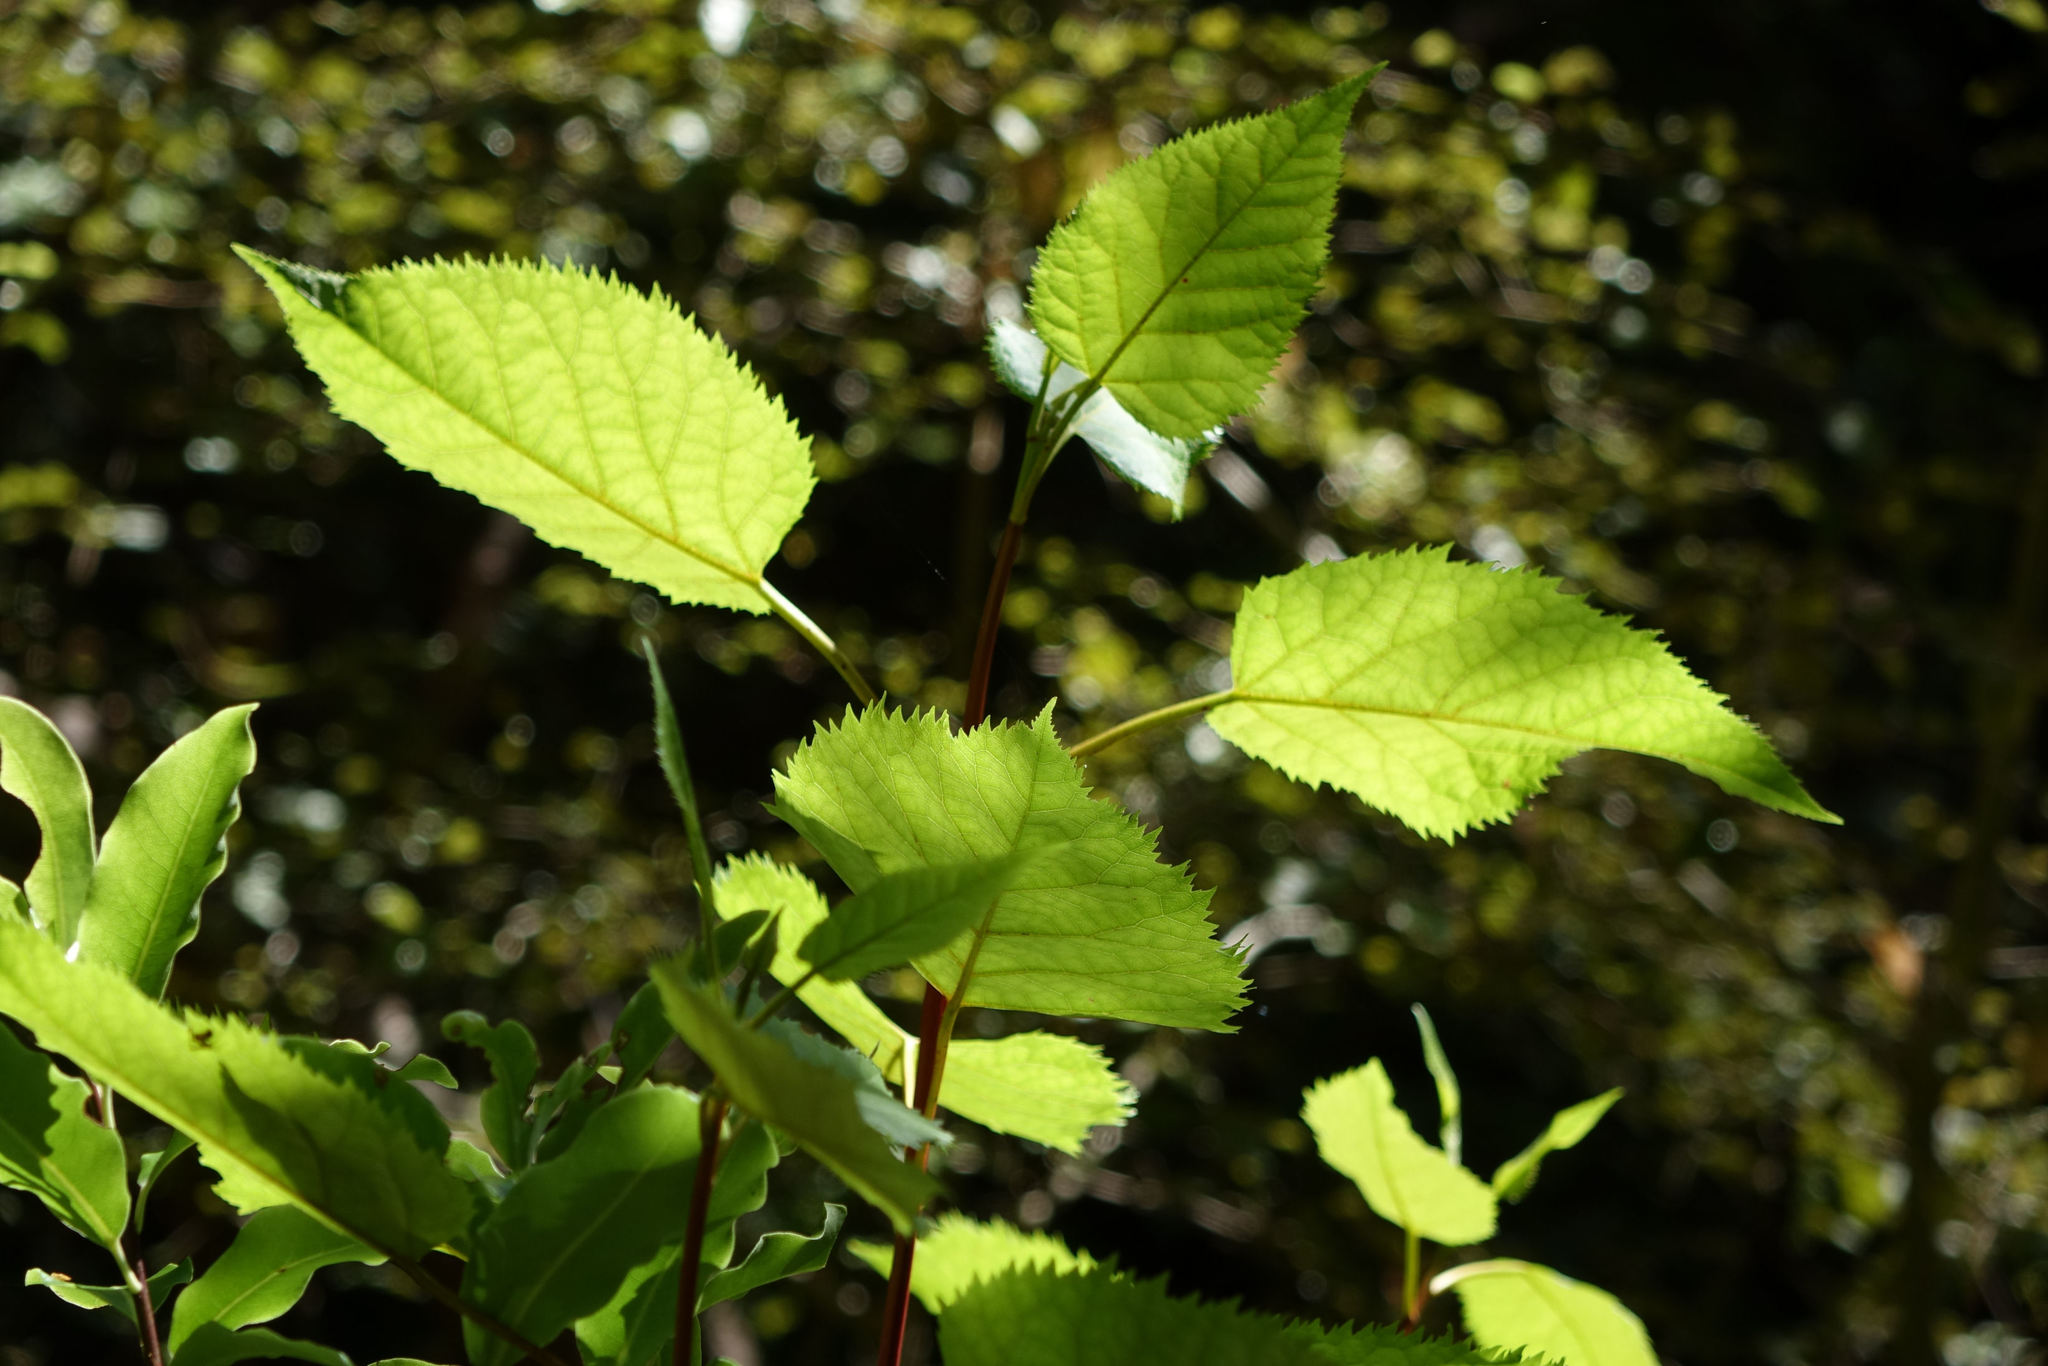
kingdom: Plantae
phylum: Tracheophyta
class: Magnoliopsida
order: Oxalidales
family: Elaeocarpaceae
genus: Aristotelia
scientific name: Aristotelia serrata
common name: New zealand wineberry
